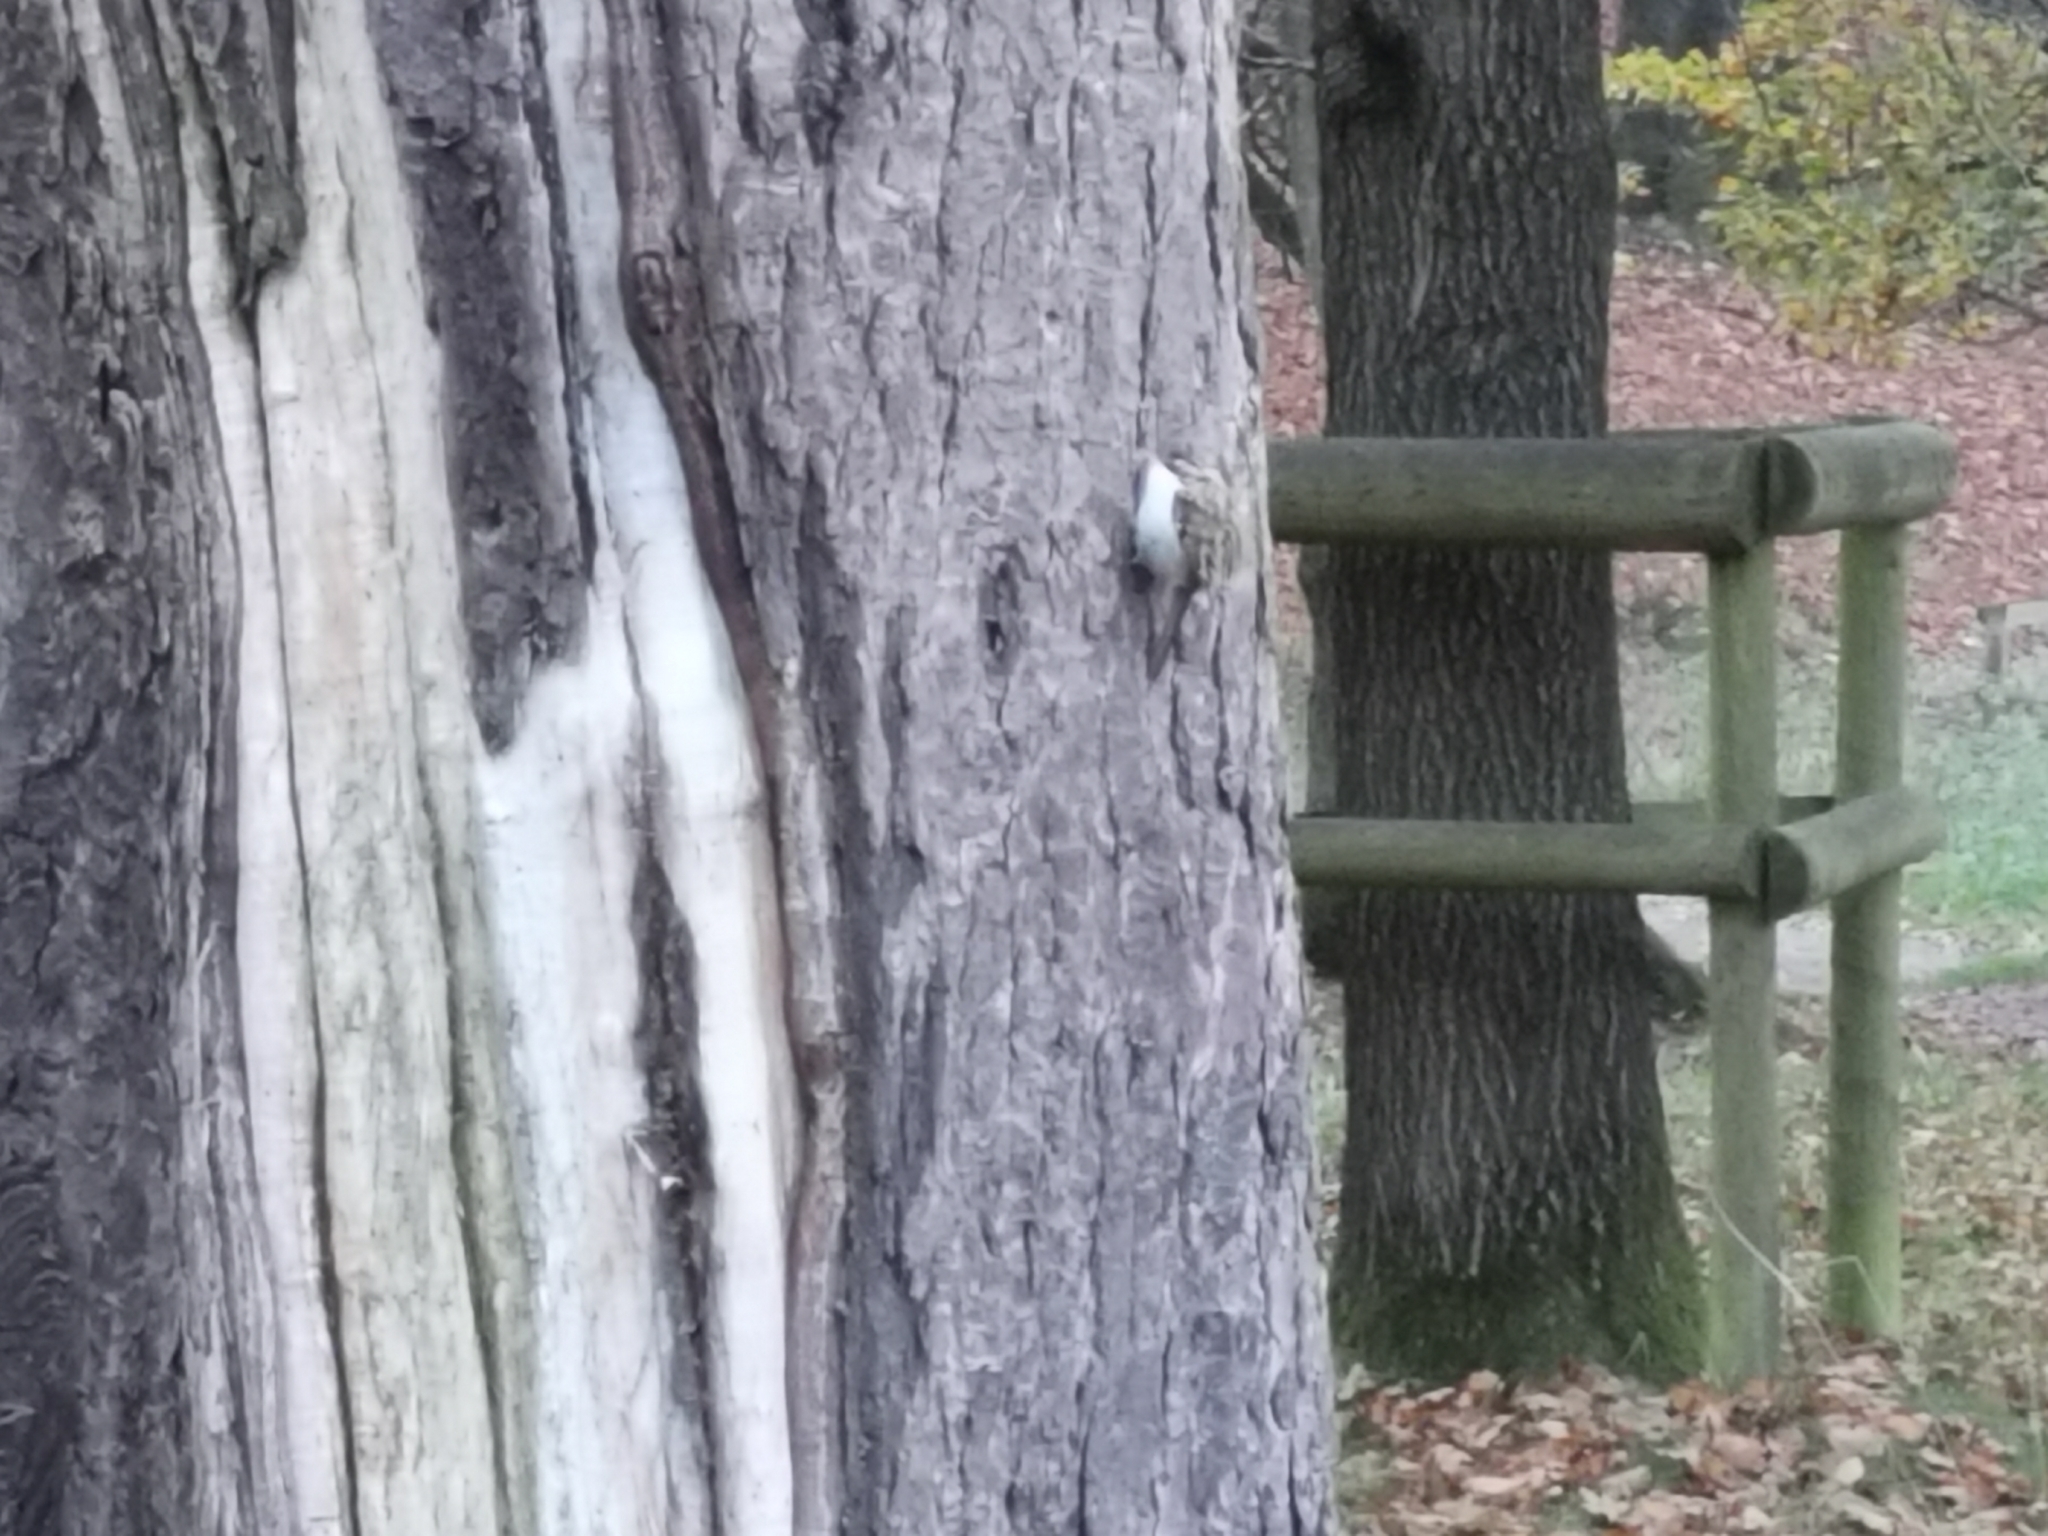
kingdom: Animalia
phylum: Chordata
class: Aves
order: Passeriformes
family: Certhiidae
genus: Certhia
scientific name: Certhia familiaris
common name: Eurasian treecreeper
